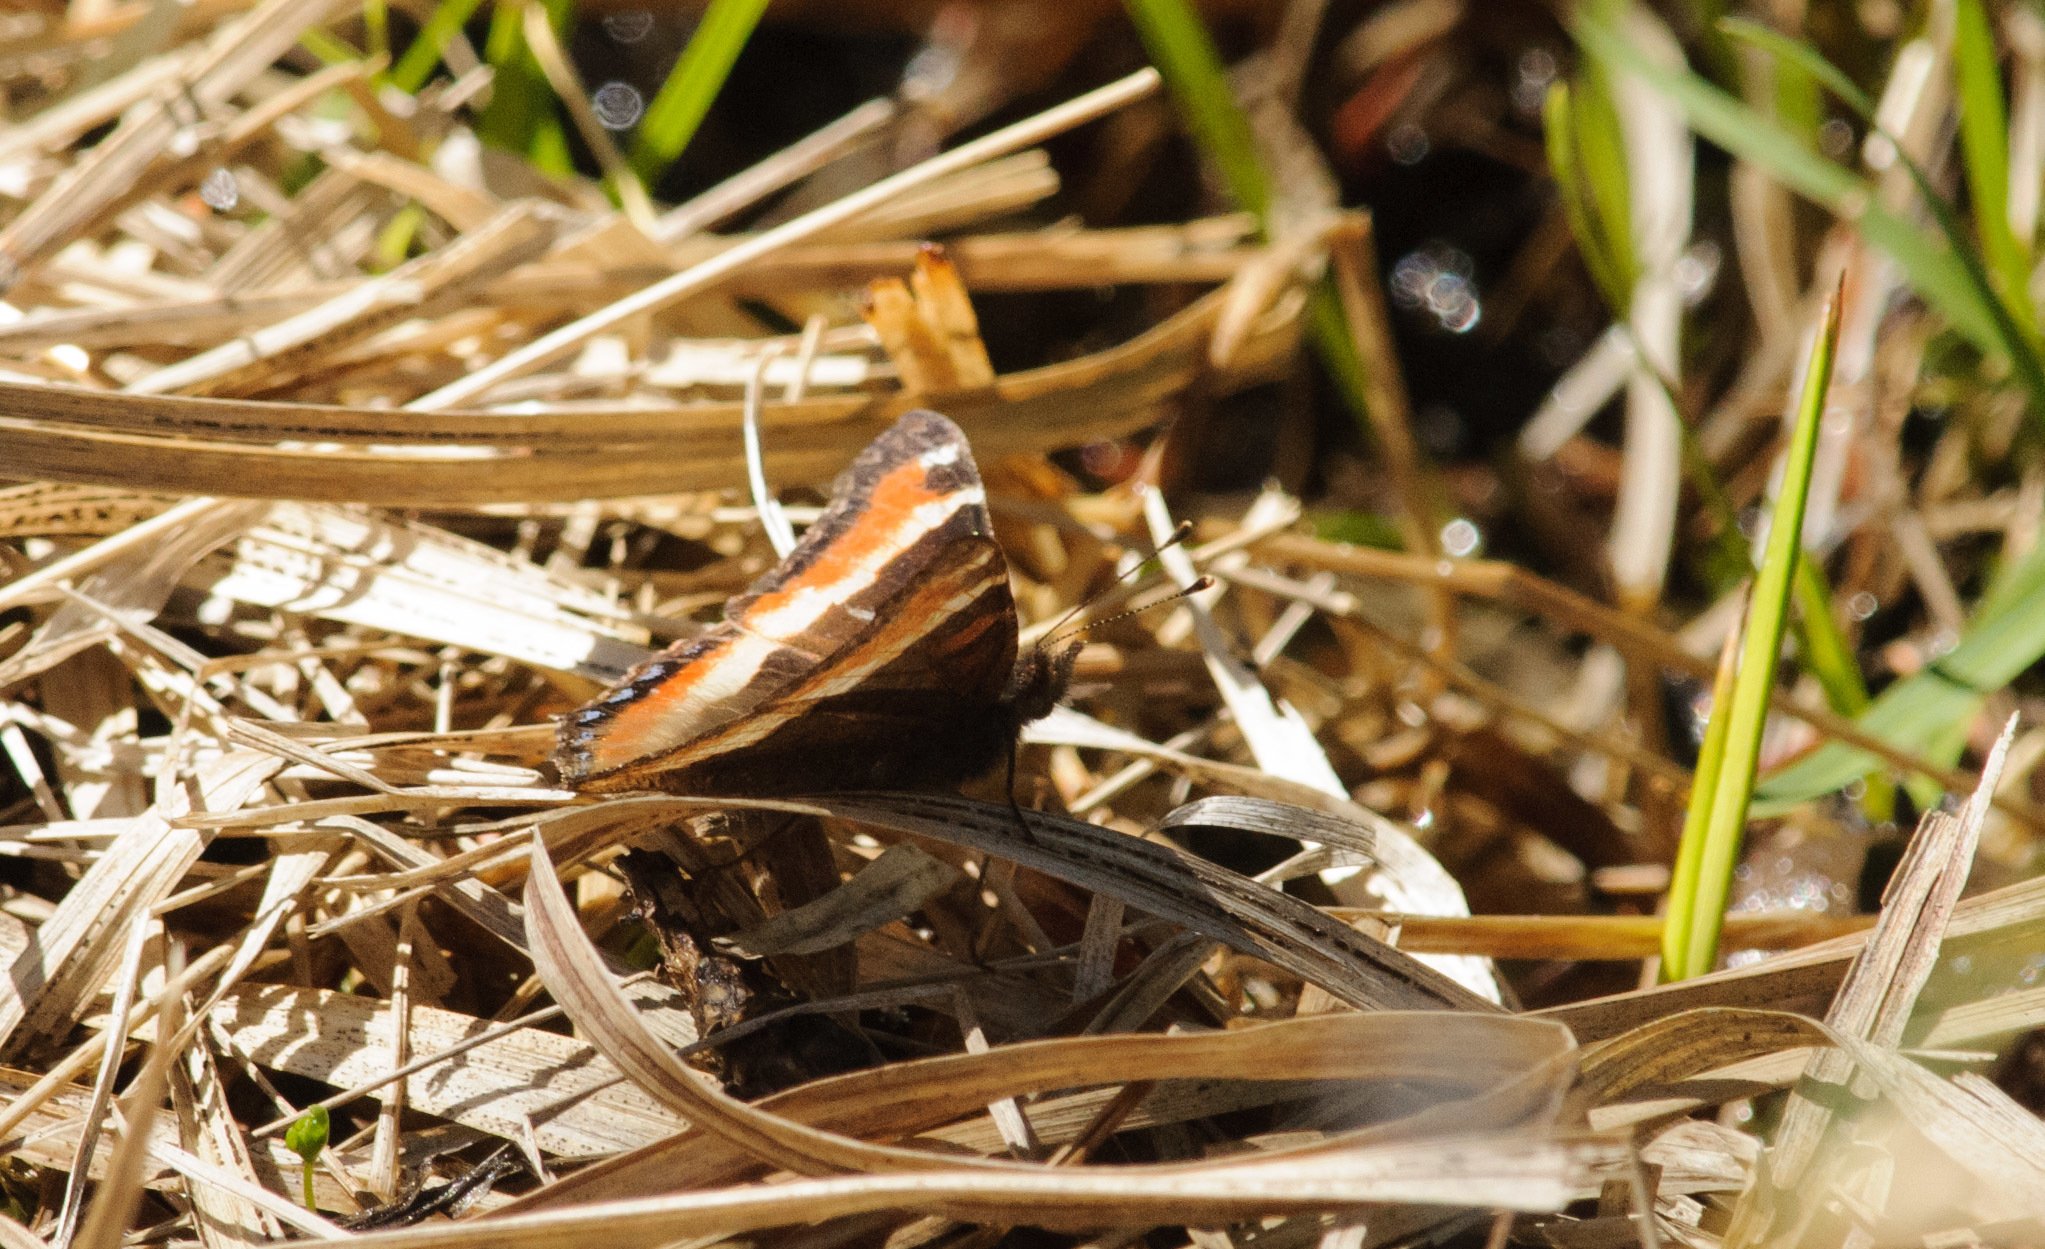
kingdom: Animalia
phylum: Arthropoda
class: Insecta
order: Lepidoptera
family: Nymphalidae
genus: Aglais
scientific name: Aglais milberti
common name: Milbert's tortoiseshell
